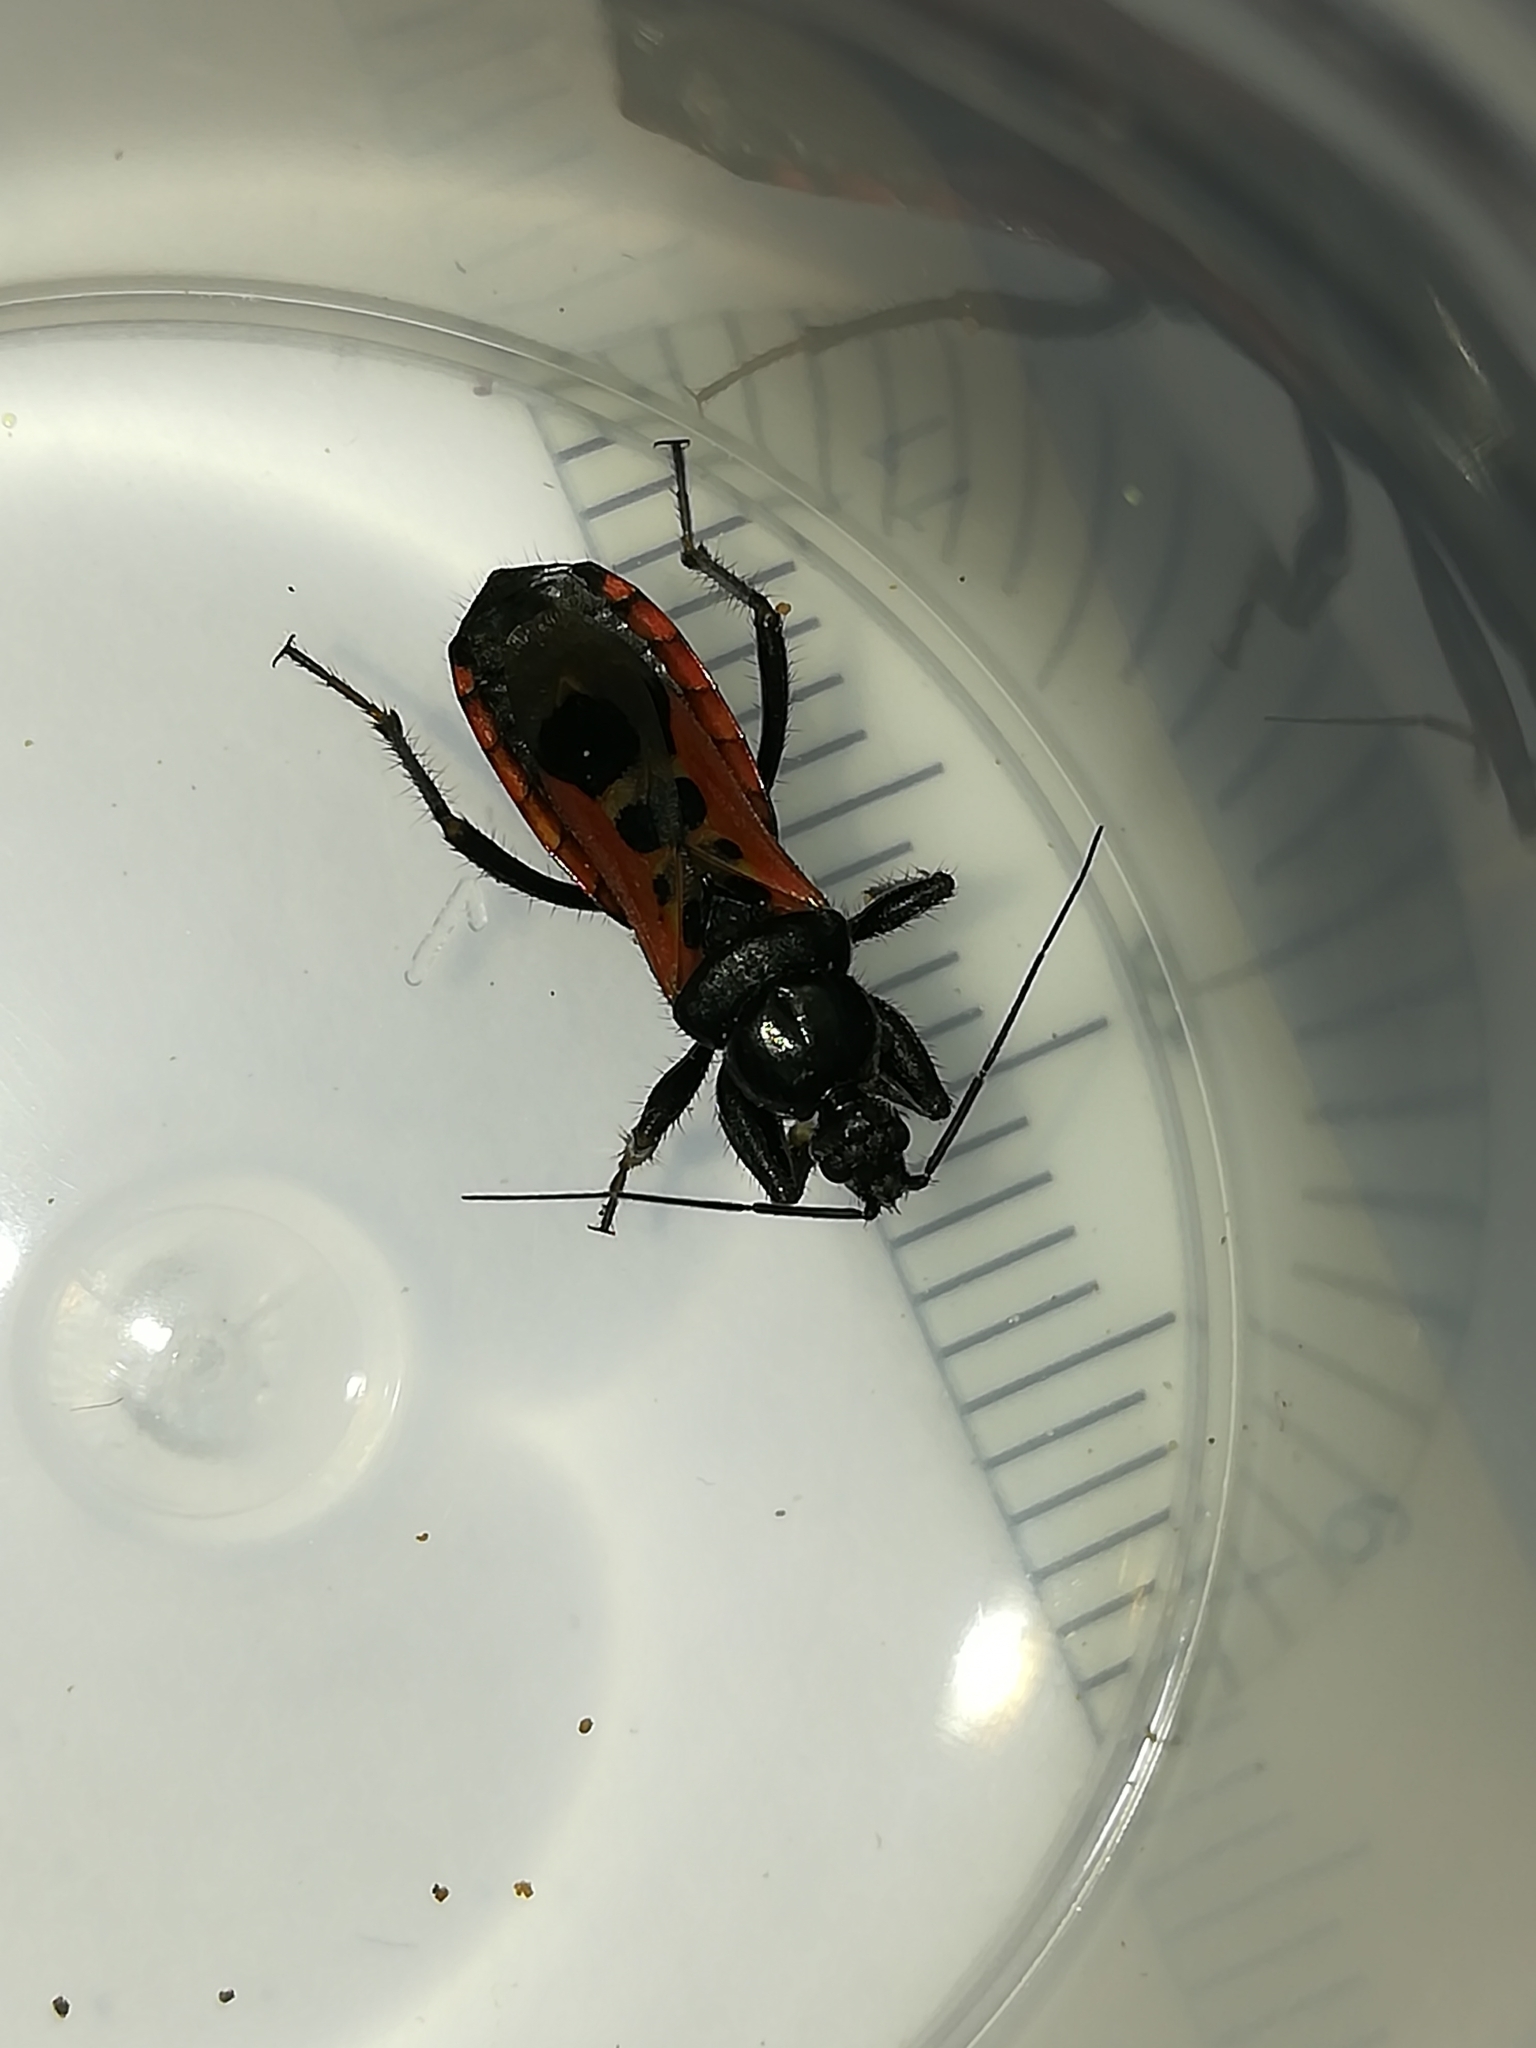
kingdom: Animalia
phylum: Arthropoda
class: Insecta
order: Hemiptera
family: Reduviidae
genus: Peirates
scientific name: Peirates stridulus
